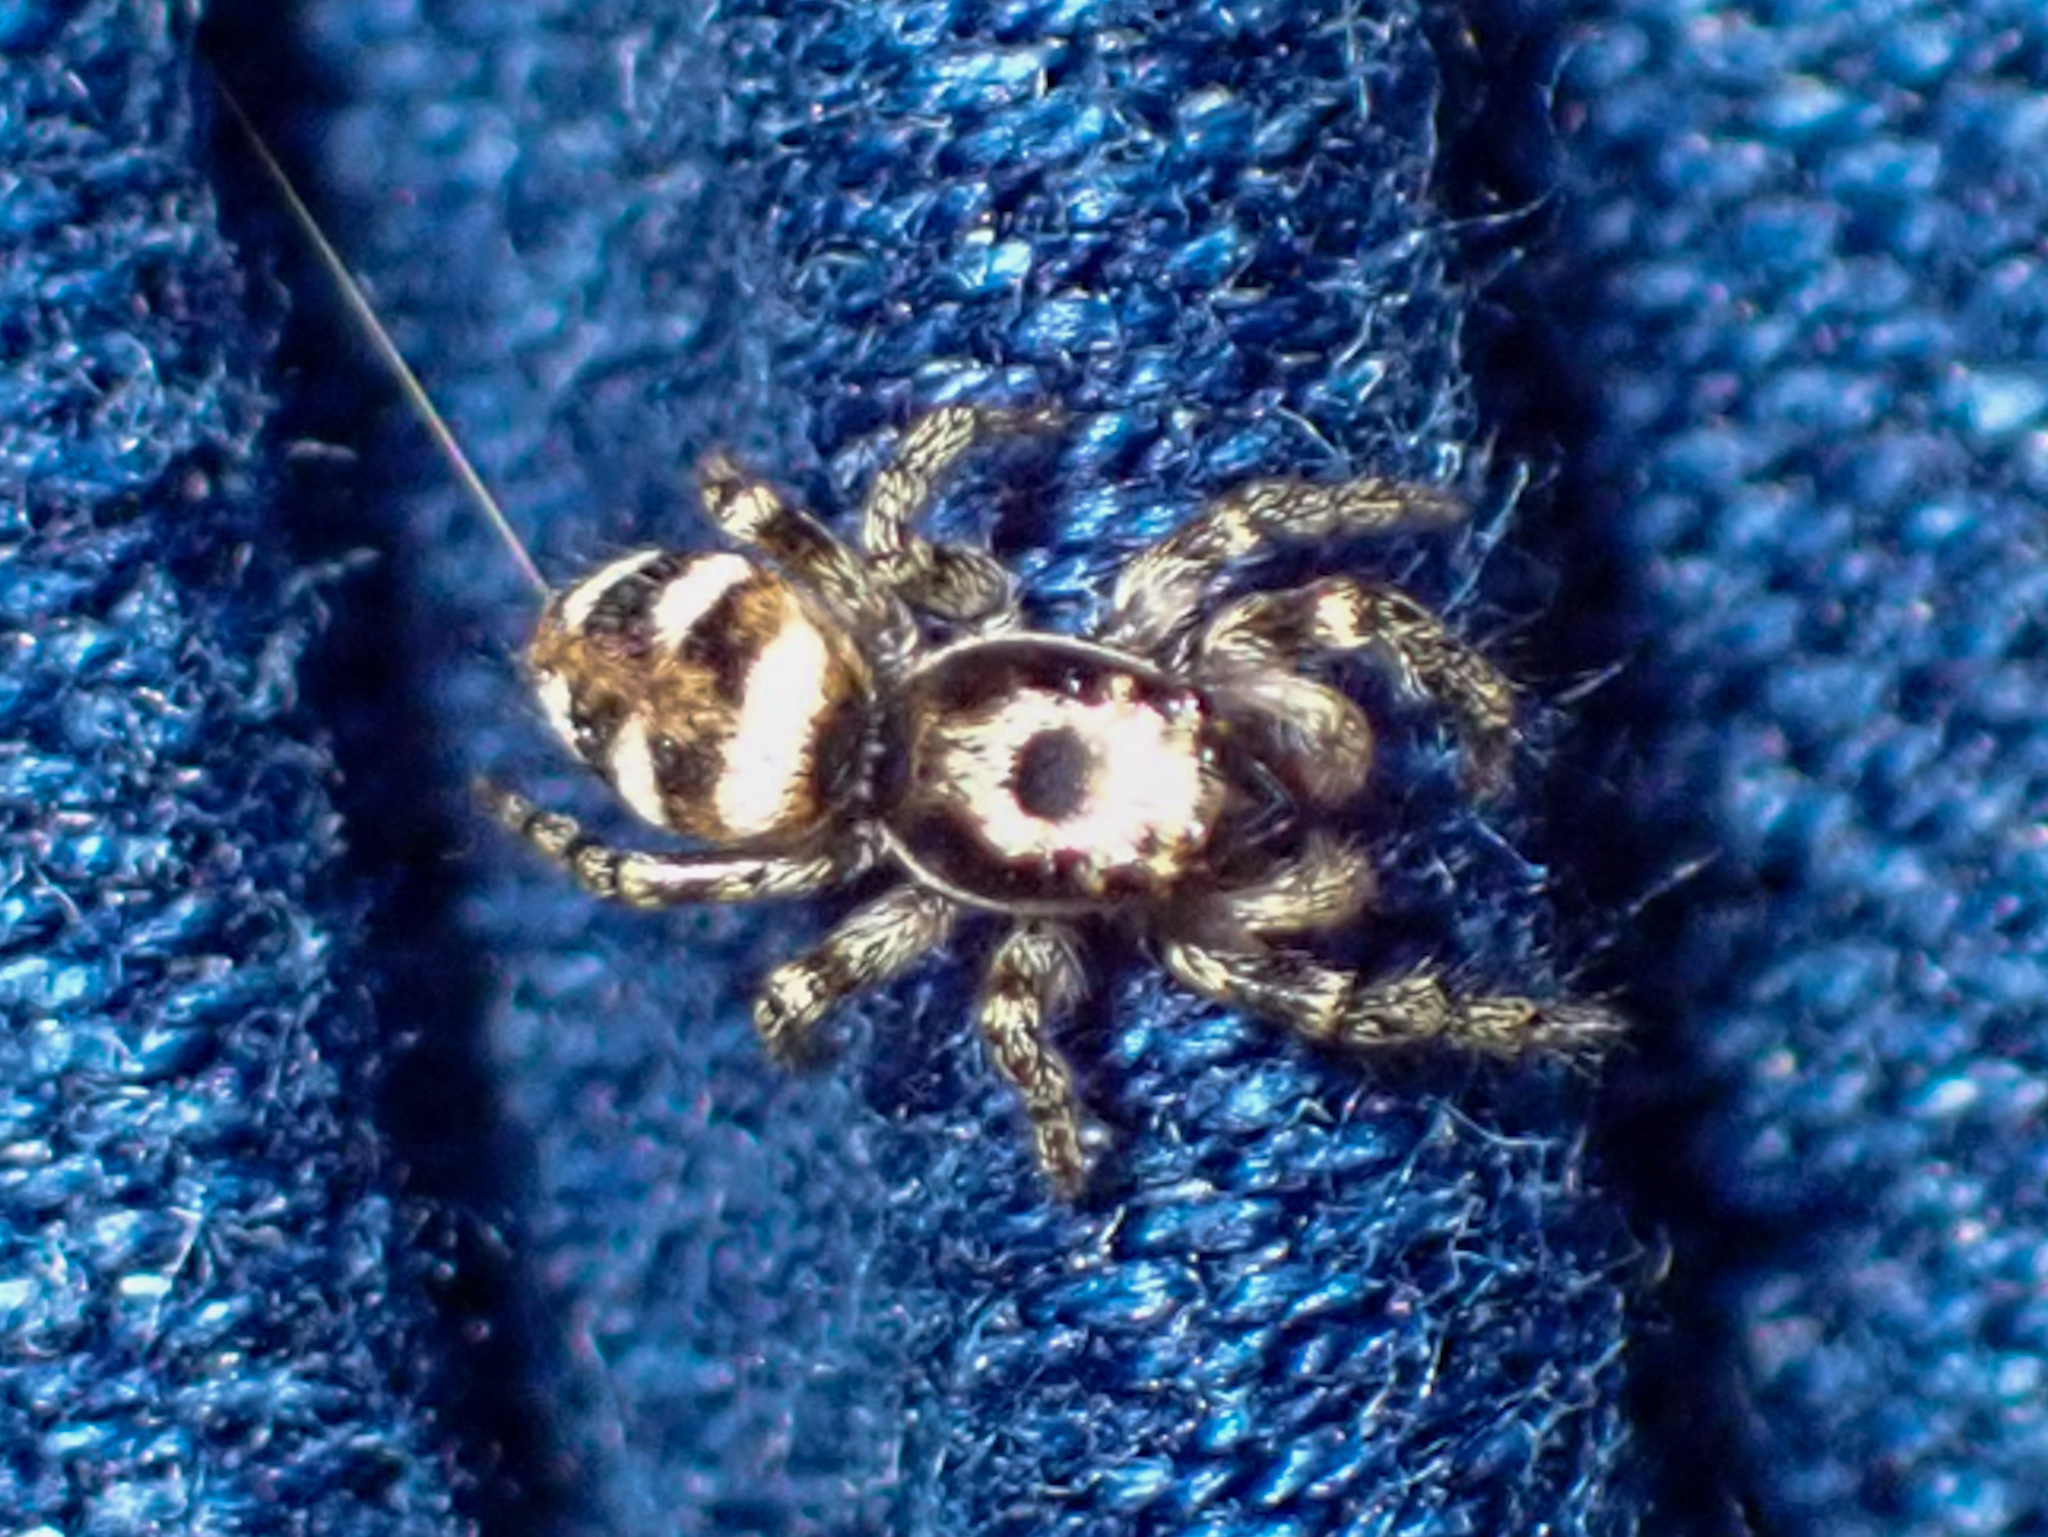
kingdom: Animalia
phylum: Arthropoda
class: Arachnida
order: Araneae
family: Salticidae
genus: Salticus
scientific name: Salticus scenicus
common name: Zebra jumper
